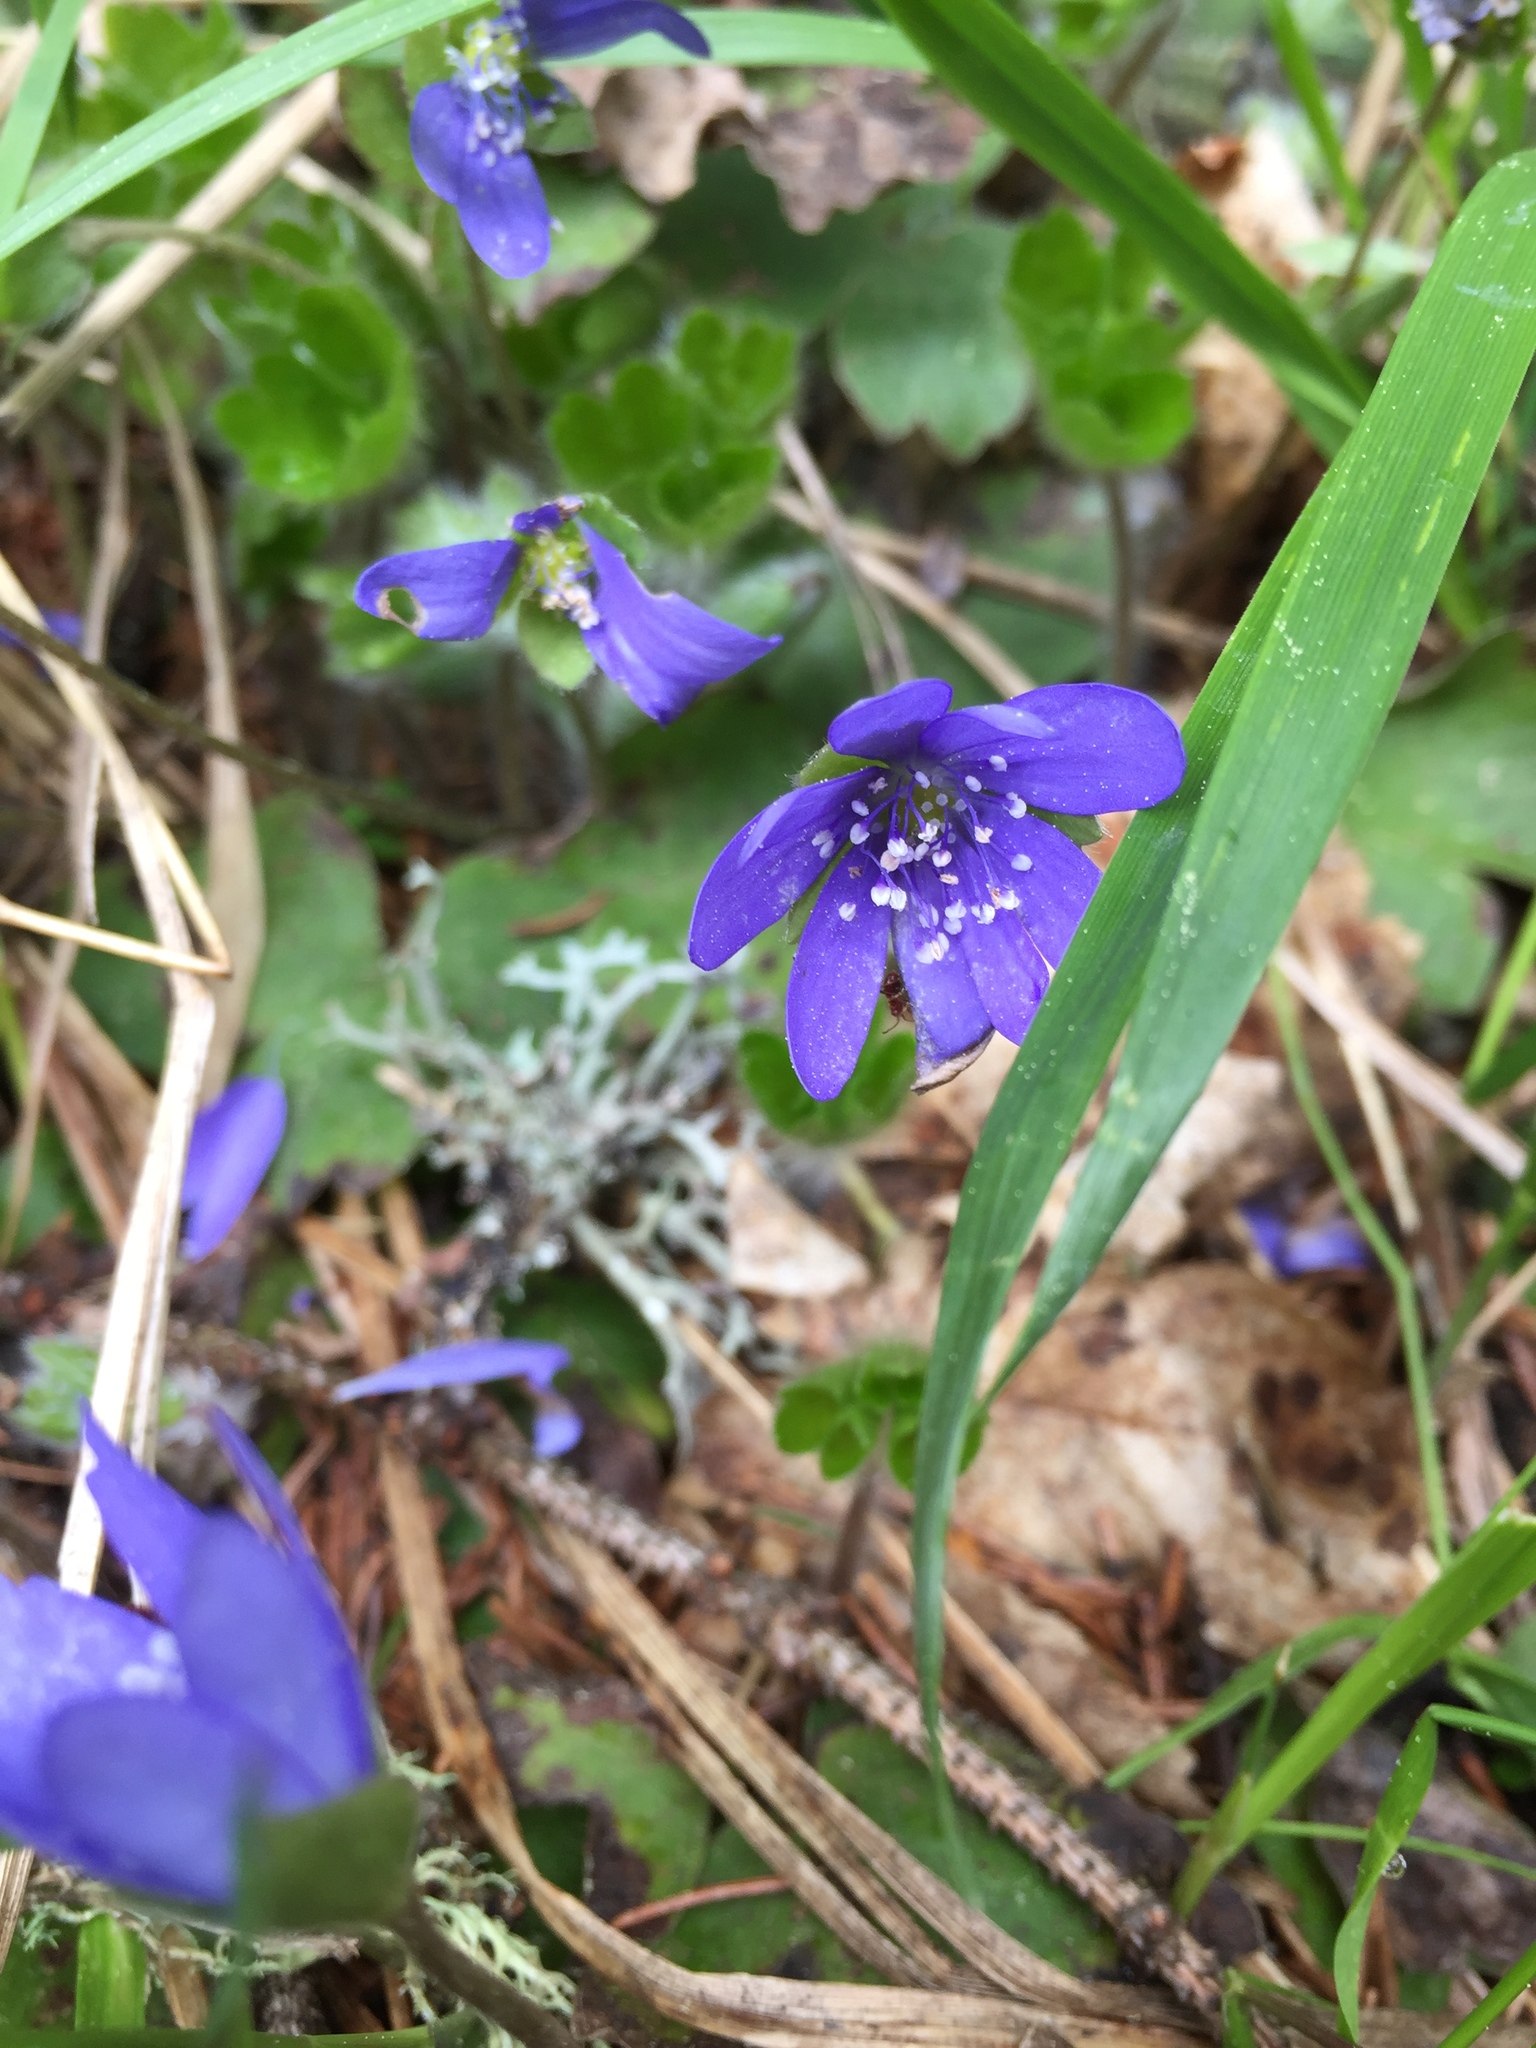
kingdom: Plantae
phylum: Tracheophyta
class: Magnoliopsida
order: Ranunculales
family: Ranunculaceae
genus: Hepatica
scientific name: Hepatica transsilvanica
